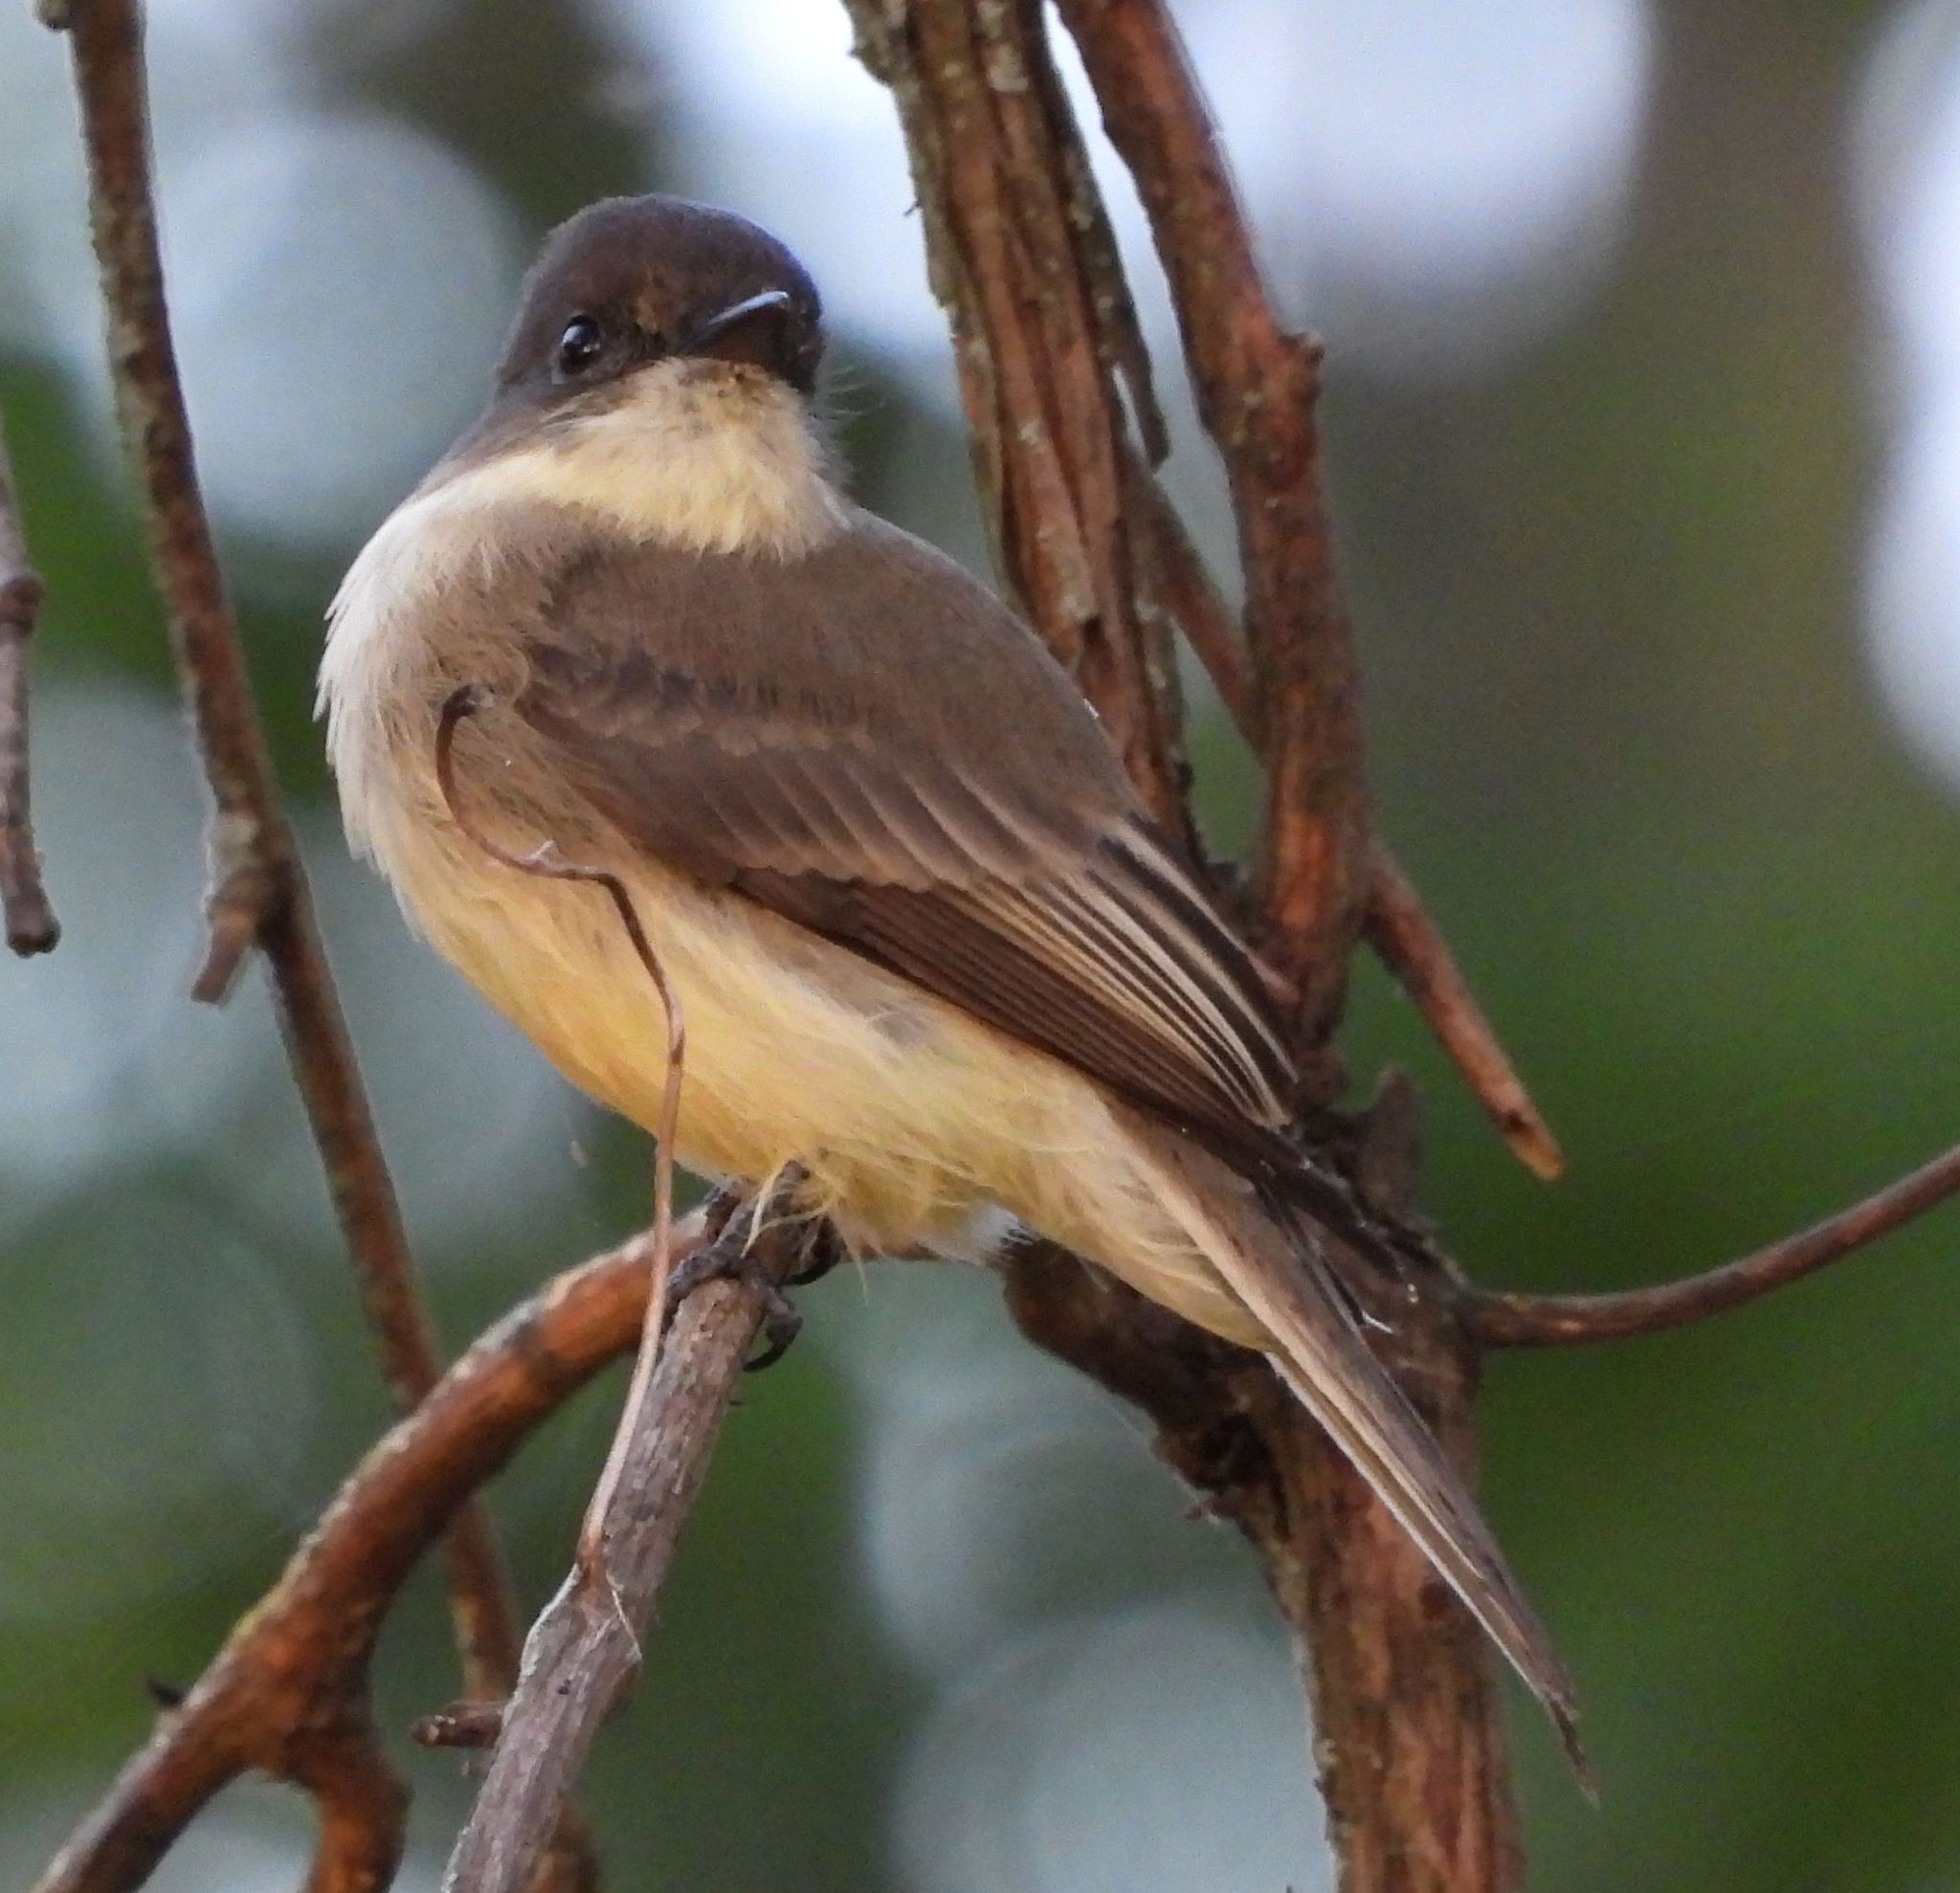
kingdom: Animalia
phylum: Chordata
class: Aves
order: Passeriformes
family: Tyrannidae
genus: Sayornis
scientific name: Sayornis phoebe
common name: Eastern phoebe
